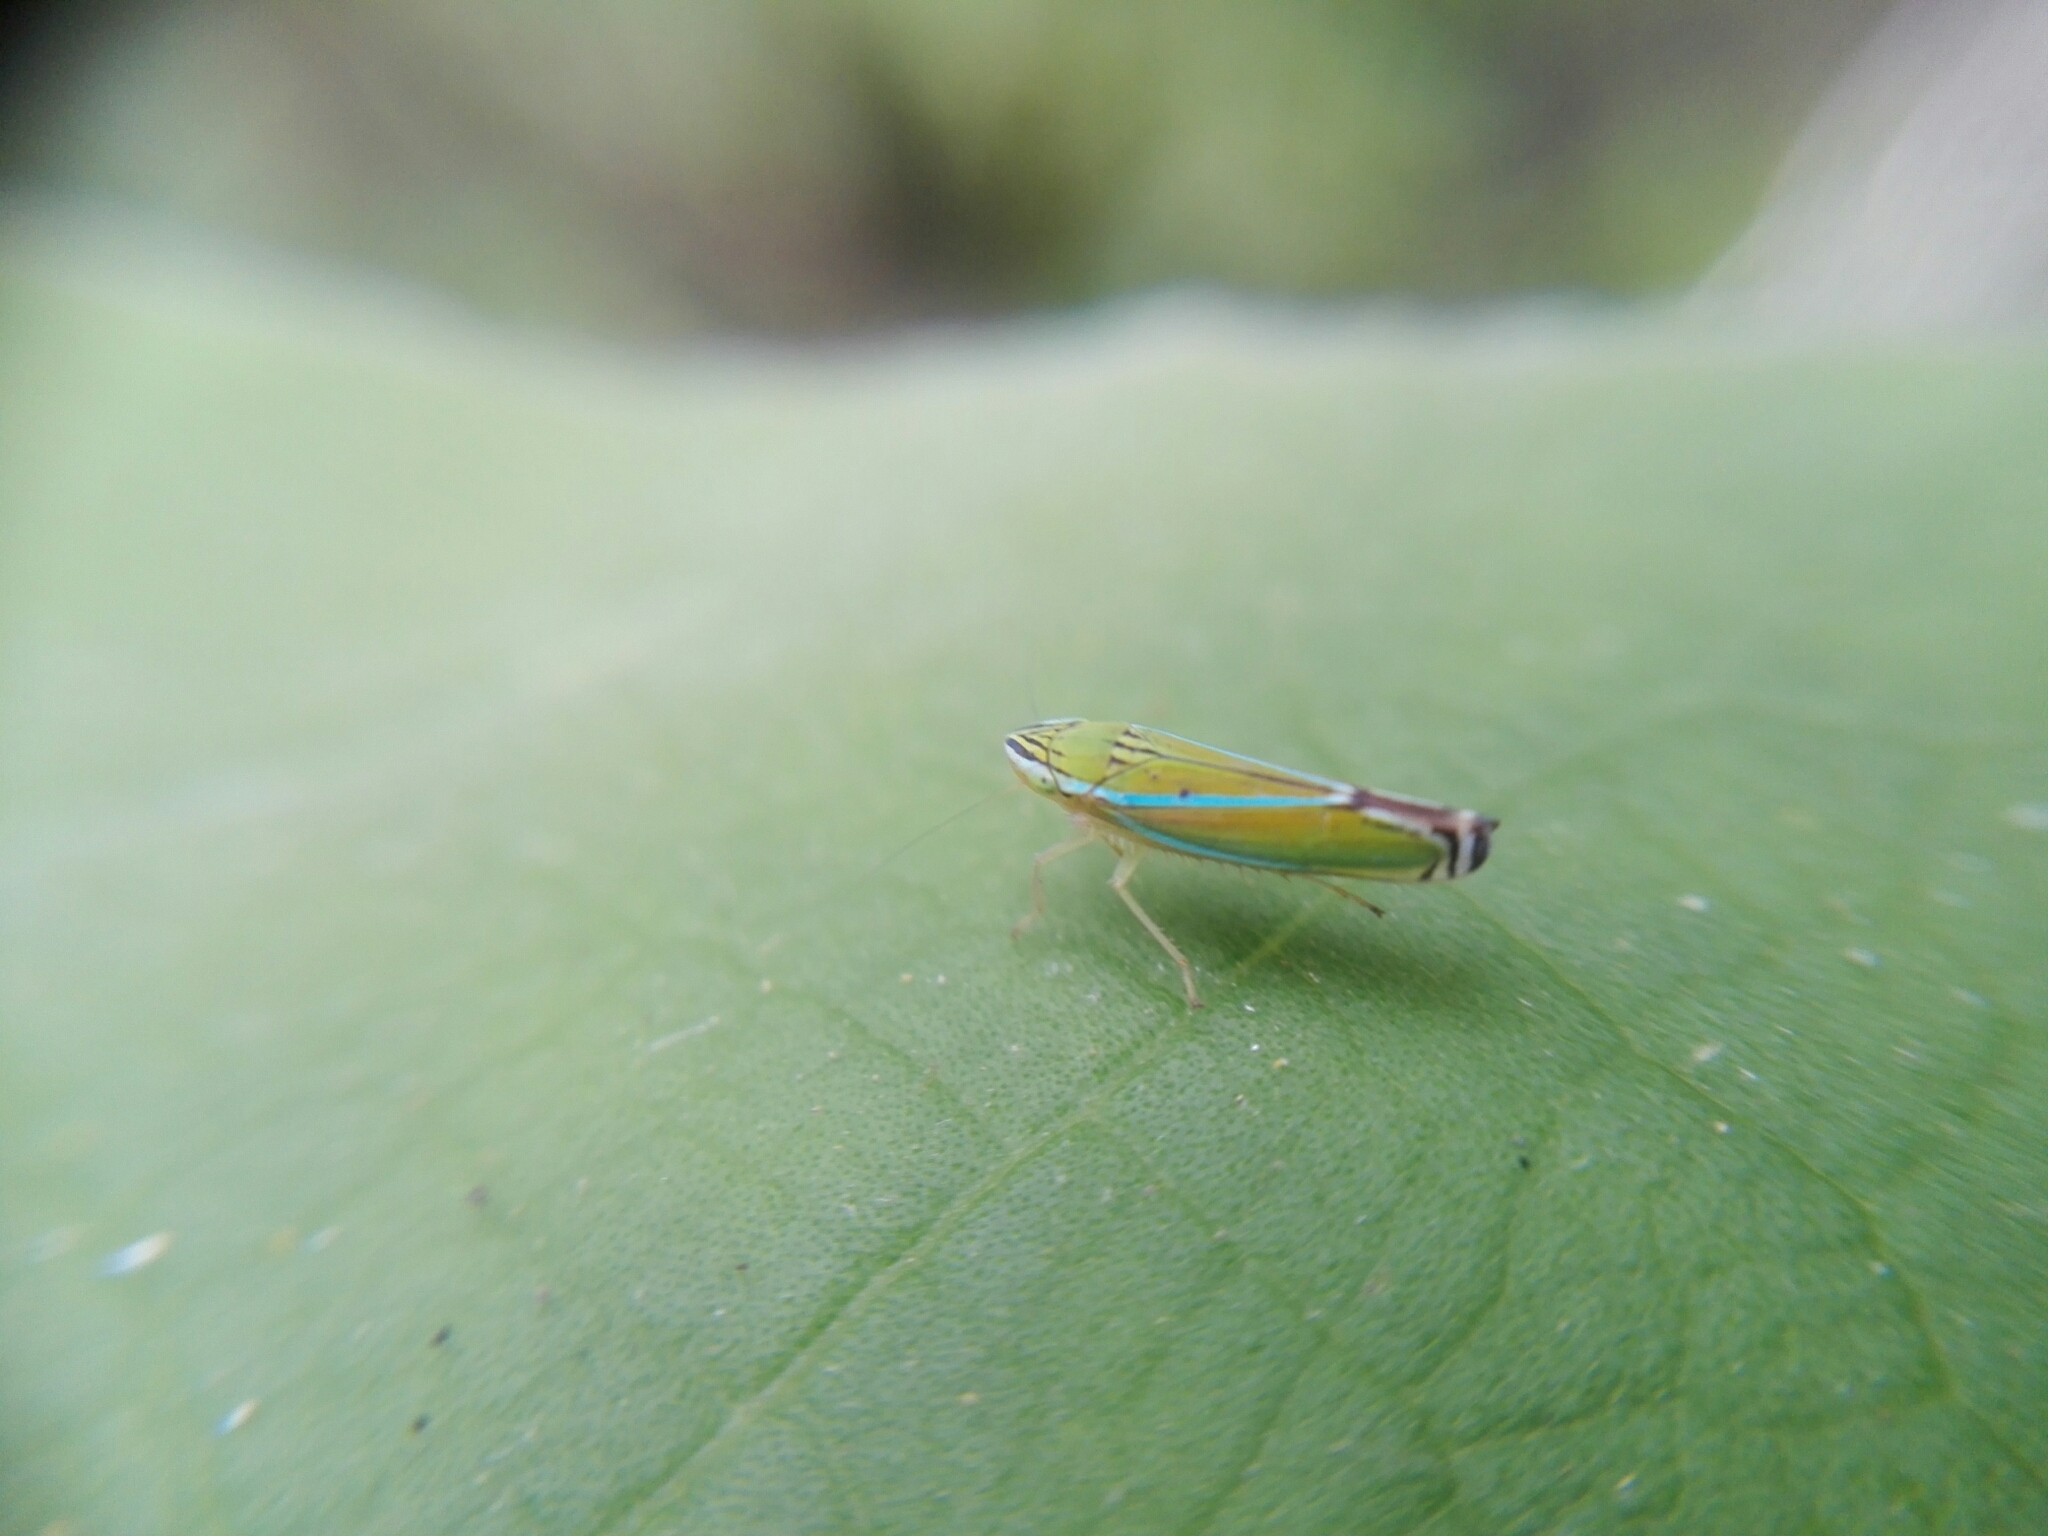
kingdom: Animalia
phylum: Arthropoda
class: Insecta
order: Hemiptera
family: Cicadellidae
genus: Sibovia
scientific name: Sibovia occatoria
